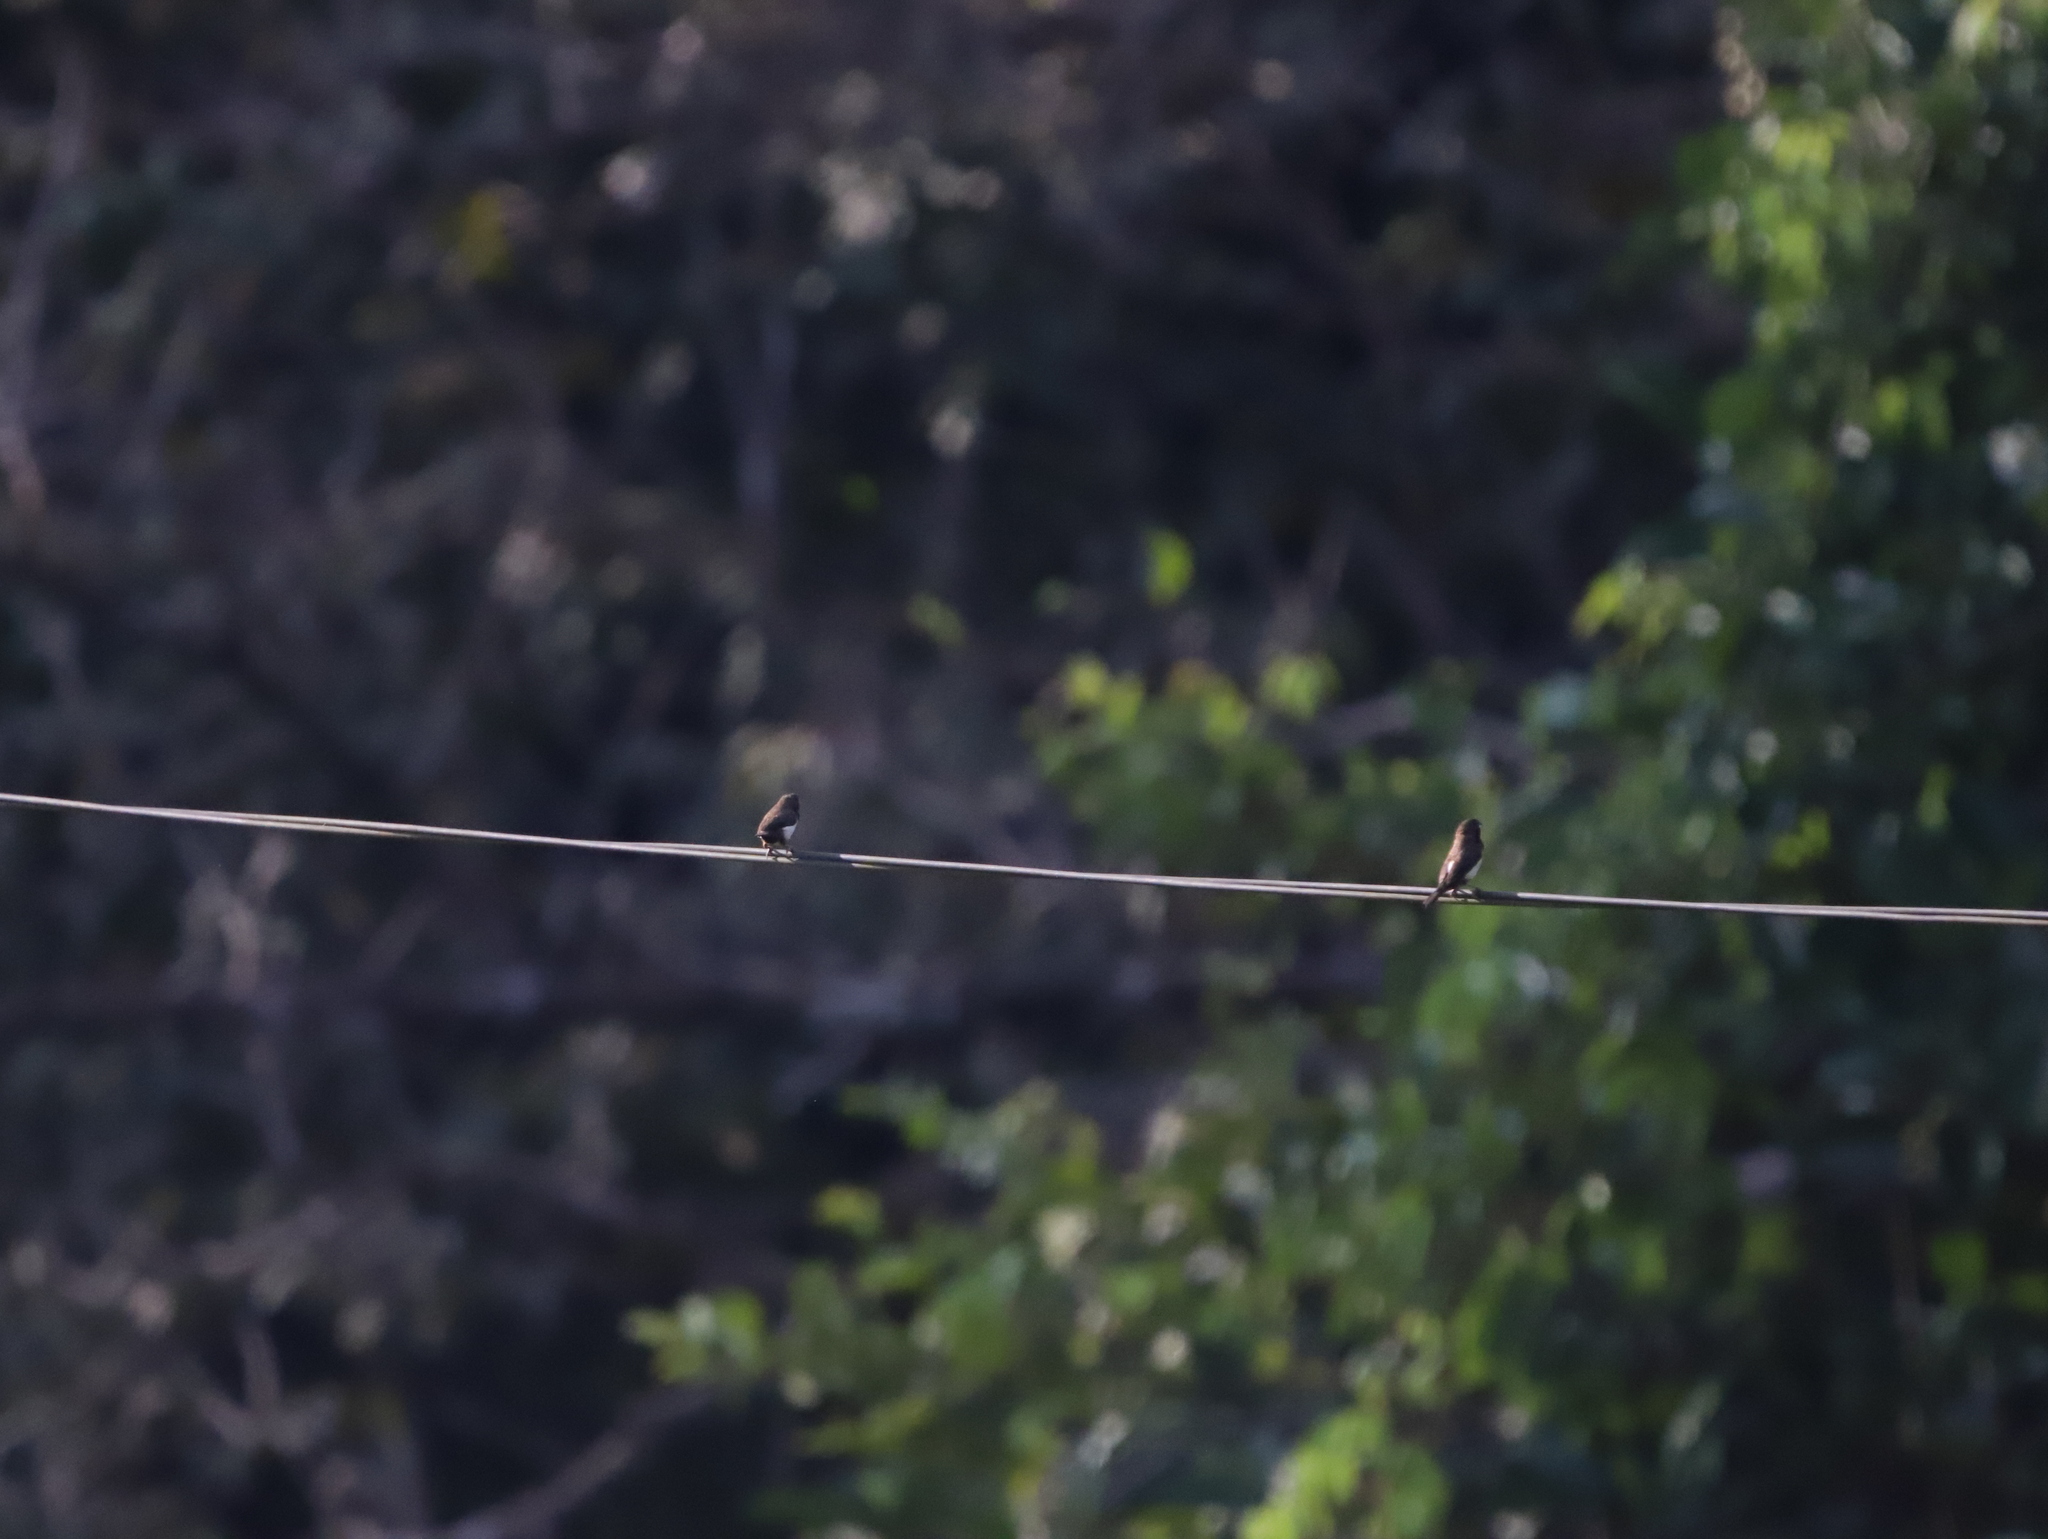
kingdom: Animalia
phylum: Chordata
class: Aves
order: Passeriformes
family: Estrildidae
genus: Lonchura
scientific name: Lonchura striata
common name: White-rumped munia
